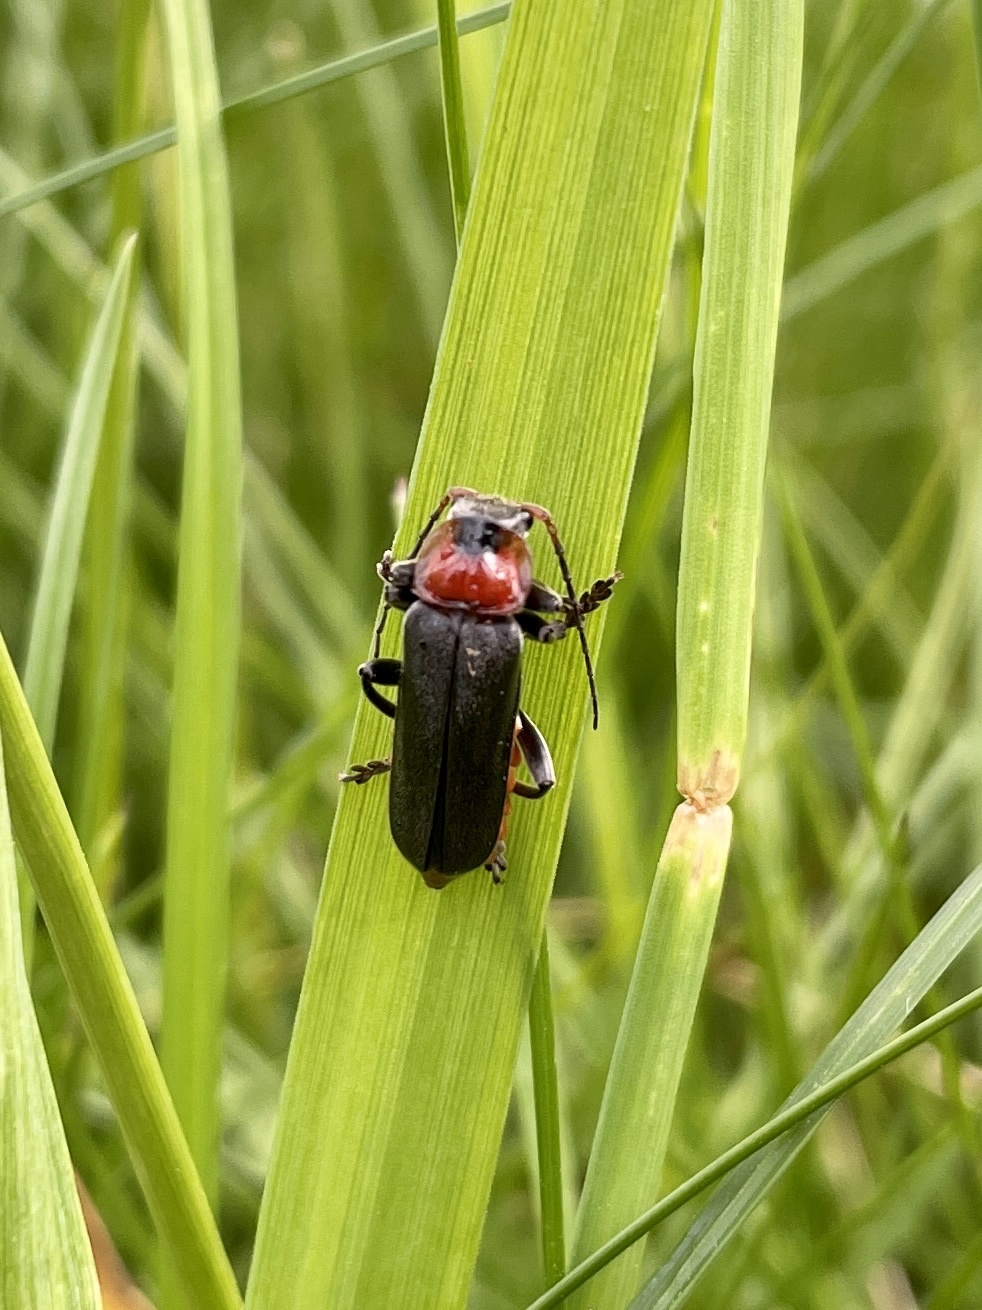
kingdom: Animalia
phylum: Arthropoda
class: Insecta
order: Coleoptera
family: Cantharidae
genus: Cantharis
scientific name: Cantharis fusca
